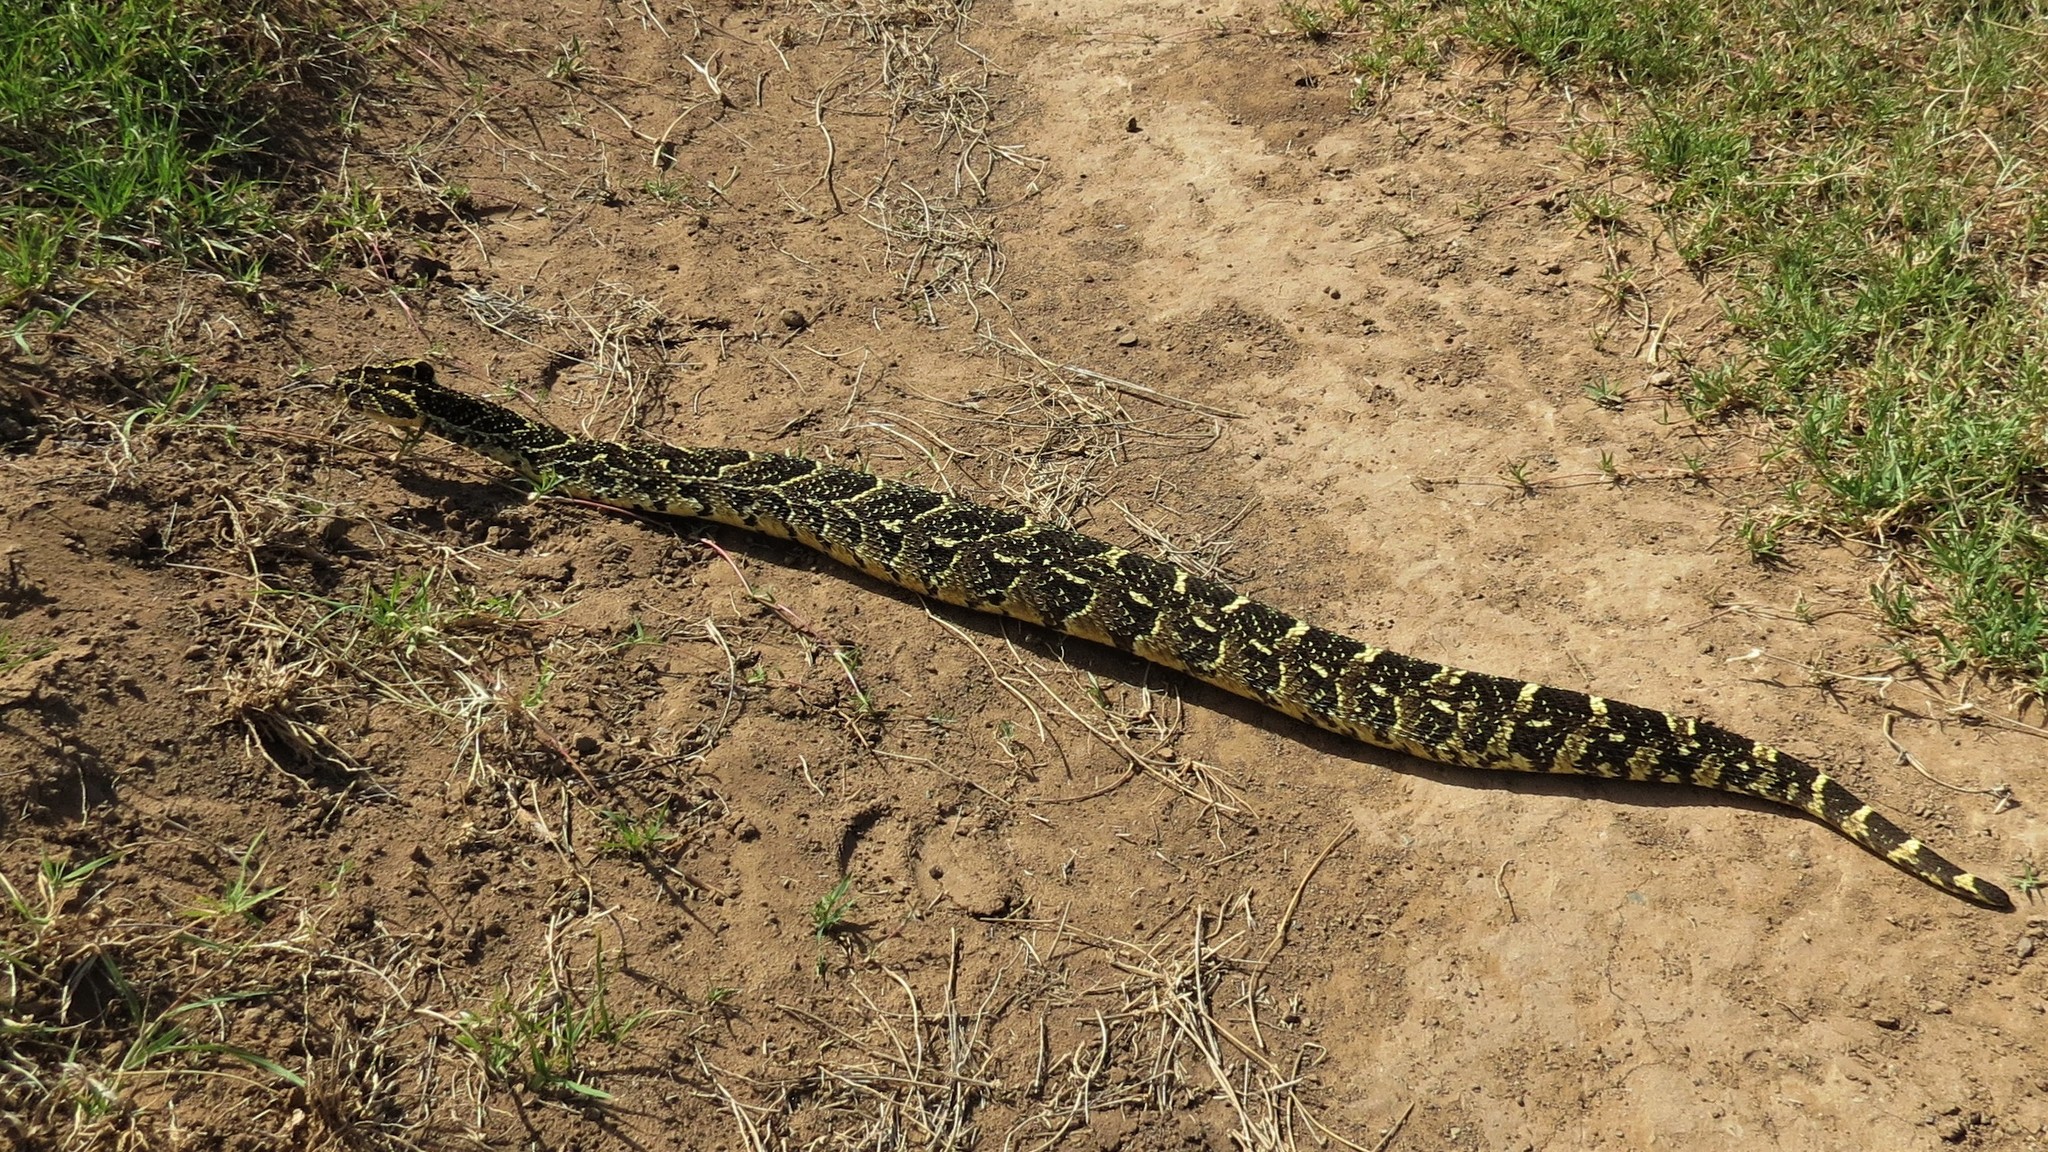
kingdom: Animalia
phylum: Chordata
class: Squamata
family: Viperidae
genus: Bitis
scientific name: Bitis arietans
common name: Puff adder
